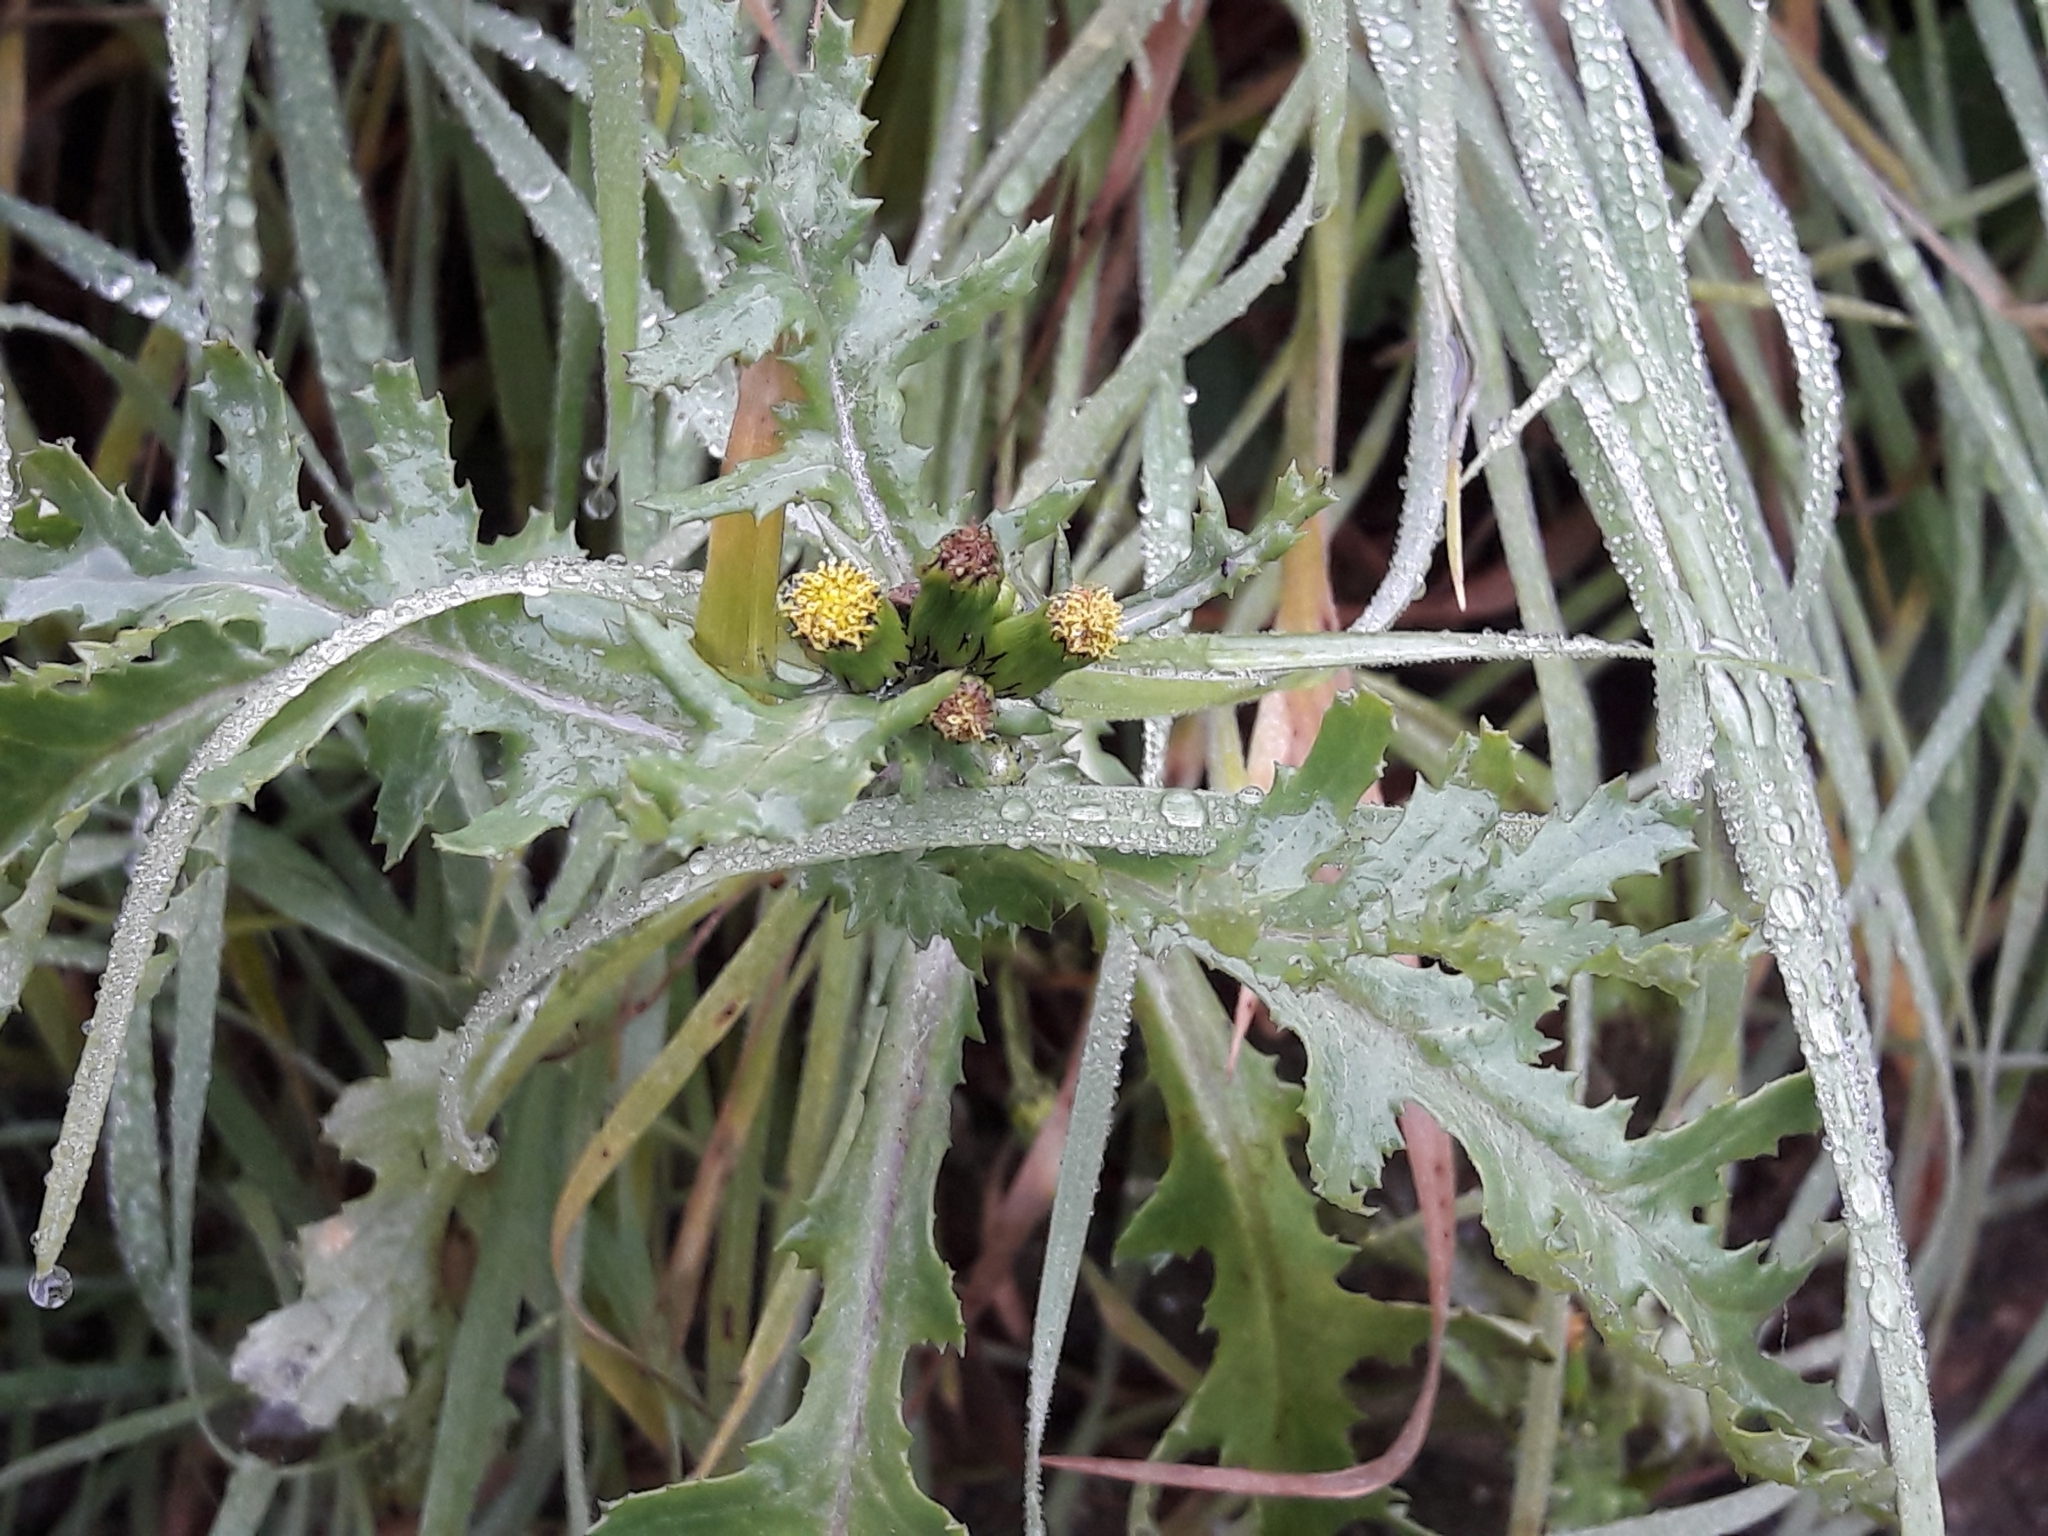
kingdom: Plantae
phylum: Tracheophyta
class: Magnoliopsida
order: Asterales
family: Asteraceae
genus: Senecio
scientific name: Senecio vulgaris
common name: Old-man-in-the-spring
